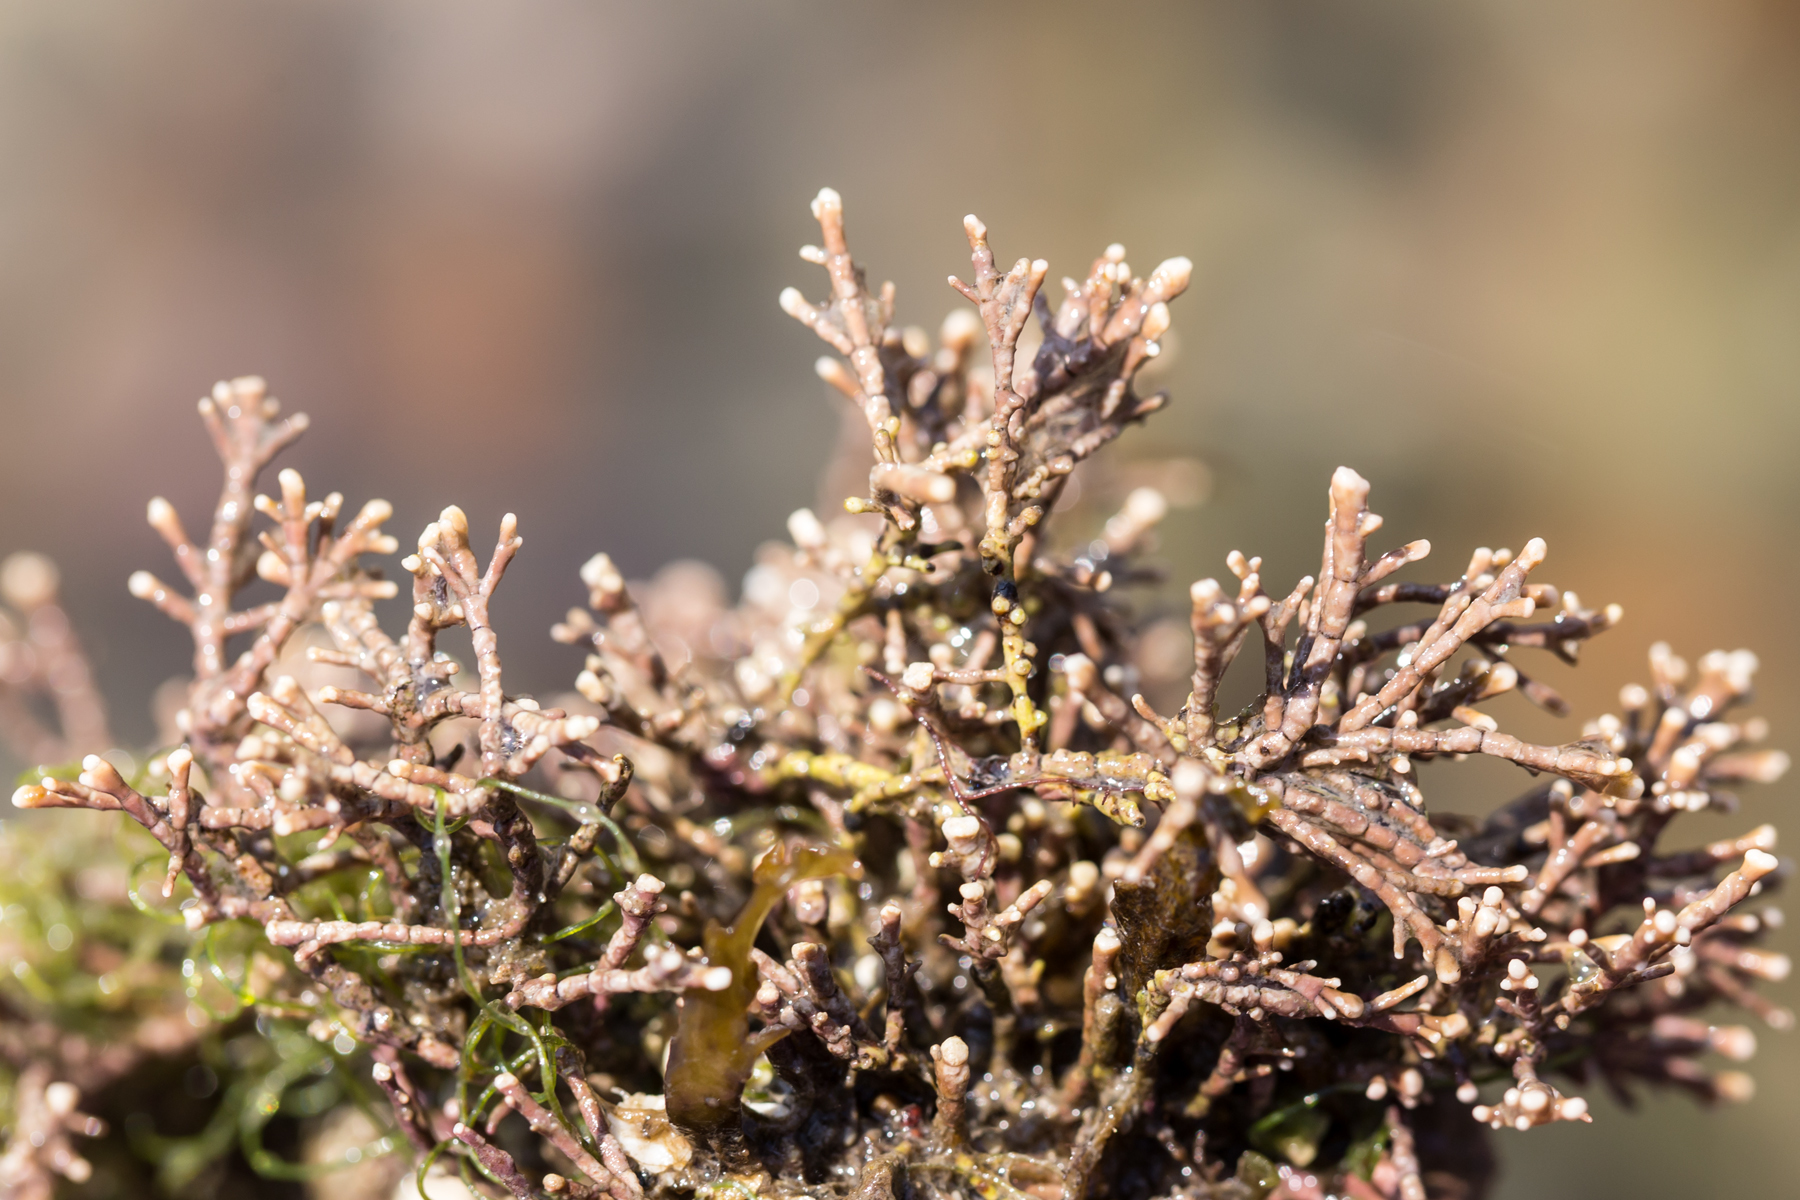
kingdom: Plantae
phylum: Rhodophyta
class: Florideophyceae
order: Corallinales
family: Corallinaceae
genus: Corallina
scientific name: Corallina officinalis
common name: Coral weed
